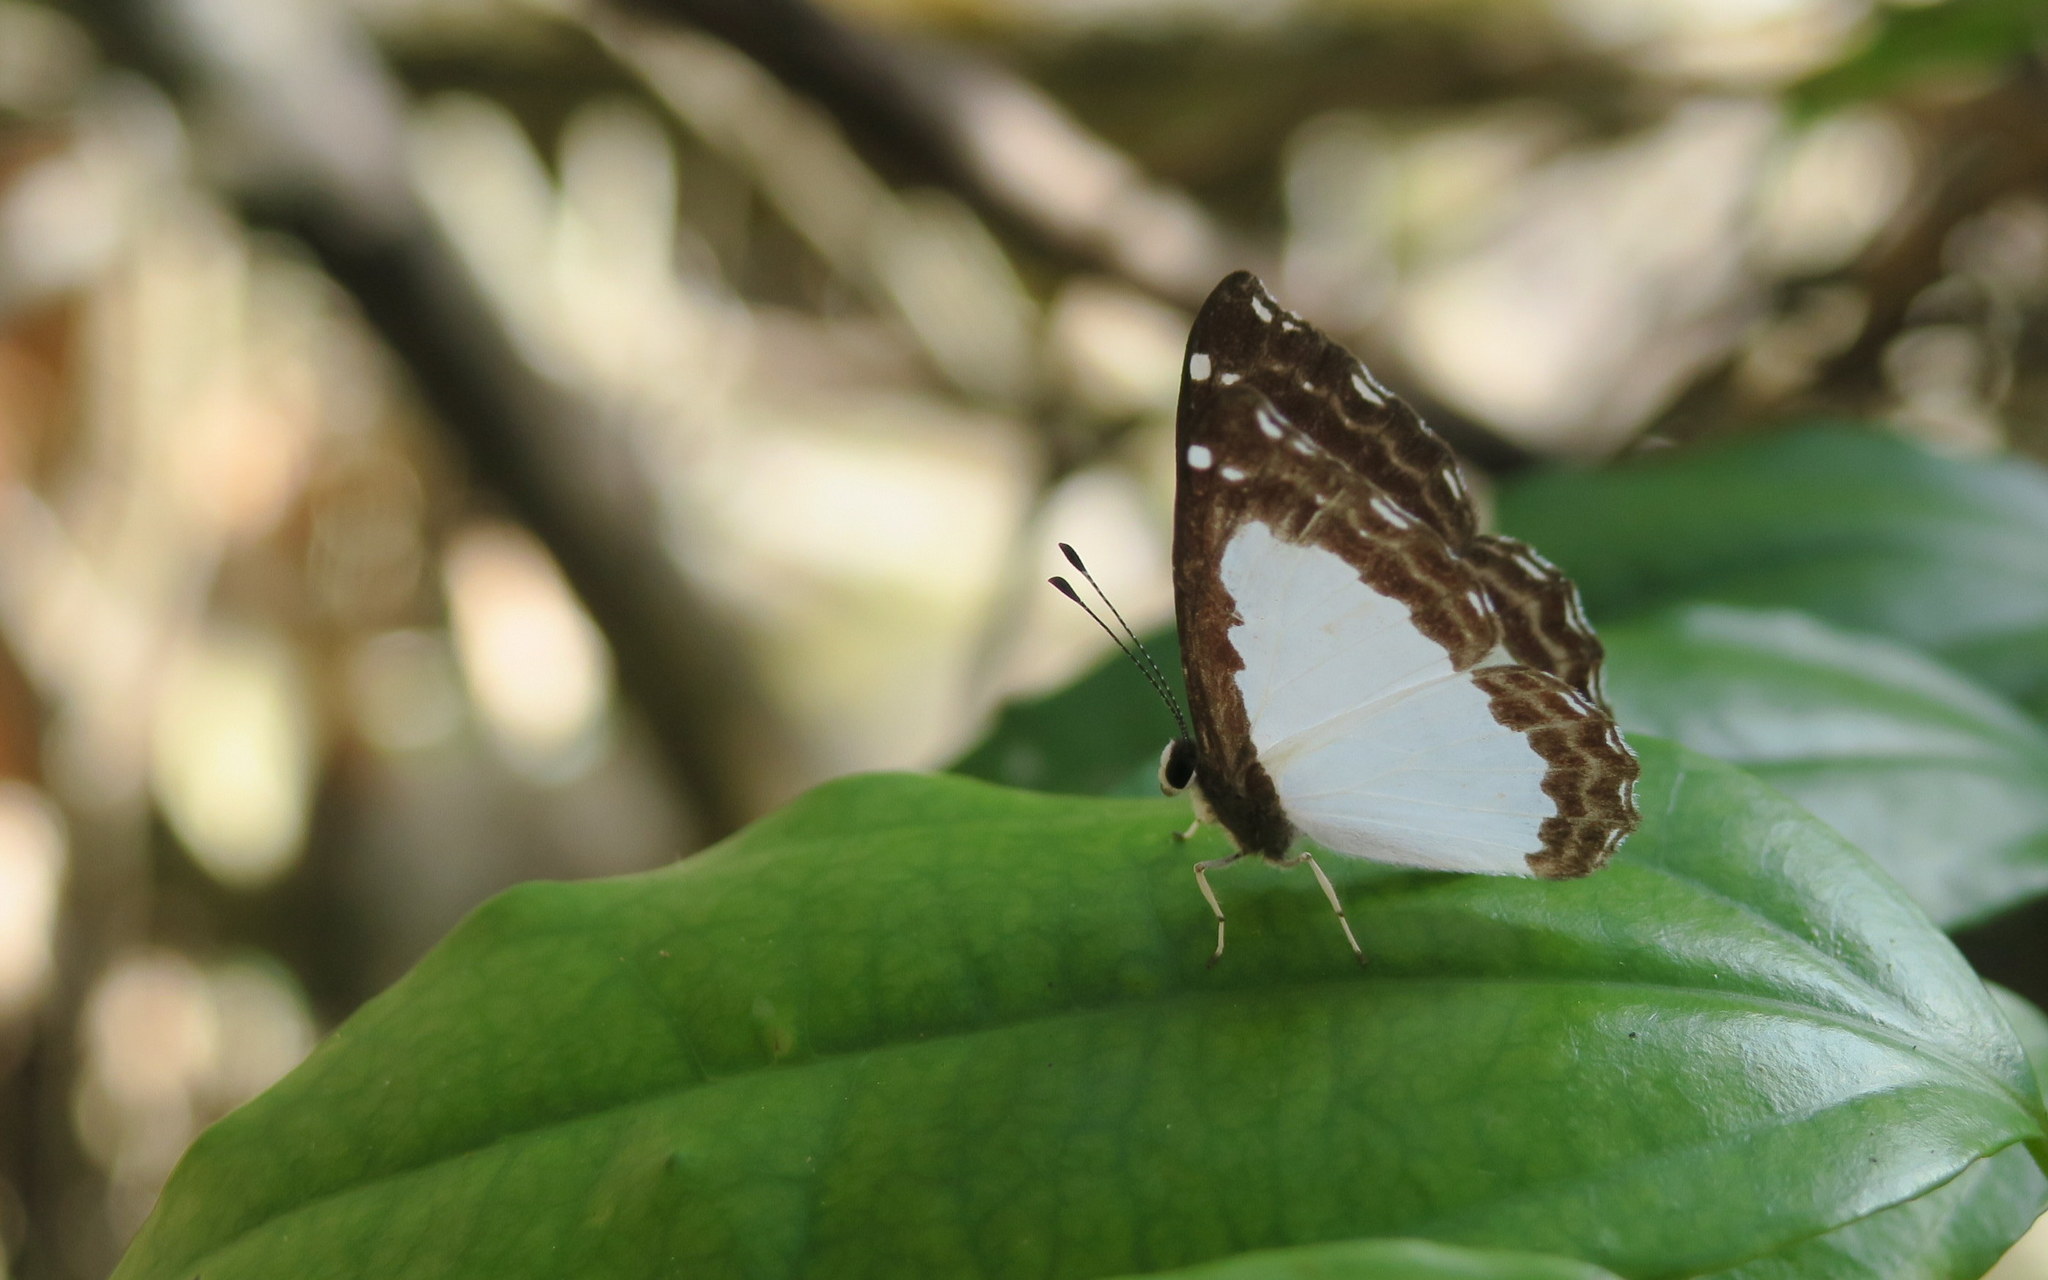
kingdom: Animalia
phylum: Arthropoda
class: Insecta
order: Lepidoptera
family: Riodinidae
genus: Stiboges
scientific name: Stiboges nymphidia
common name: Columbine
